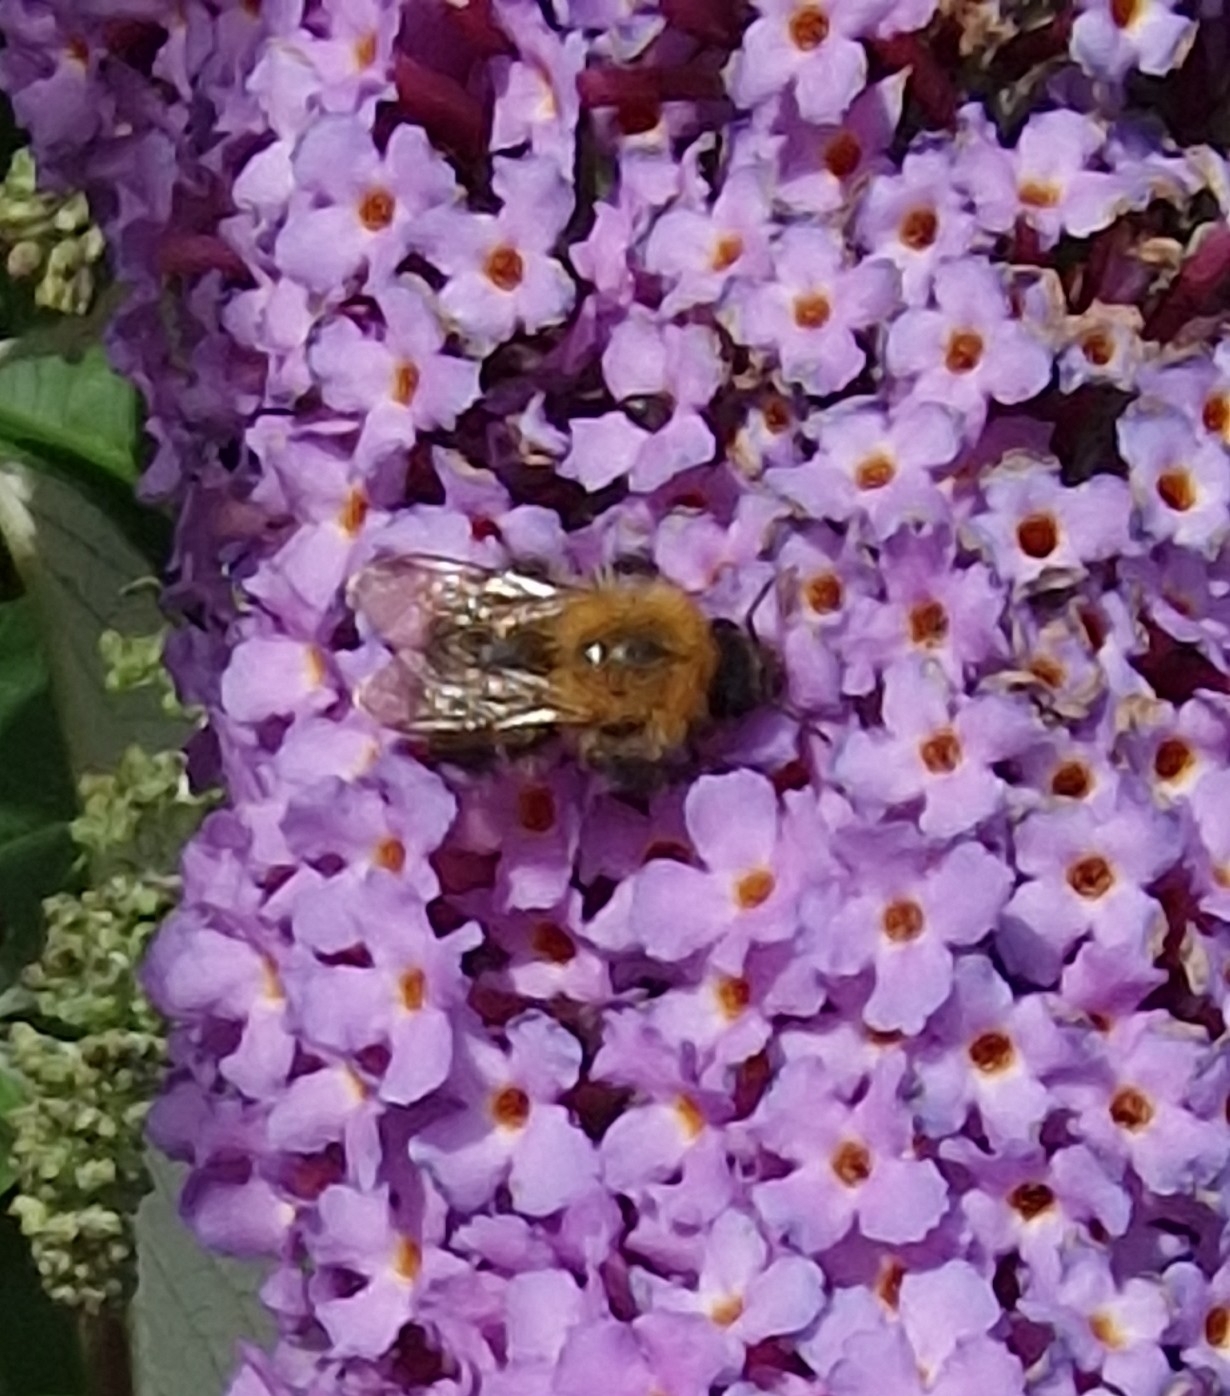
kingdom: Animalia
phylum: Arthropoda
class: Insecta
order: Hymenoptera
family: Apidae
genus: Bombus
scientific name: Bombus pascuorum
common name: Common carder bee
